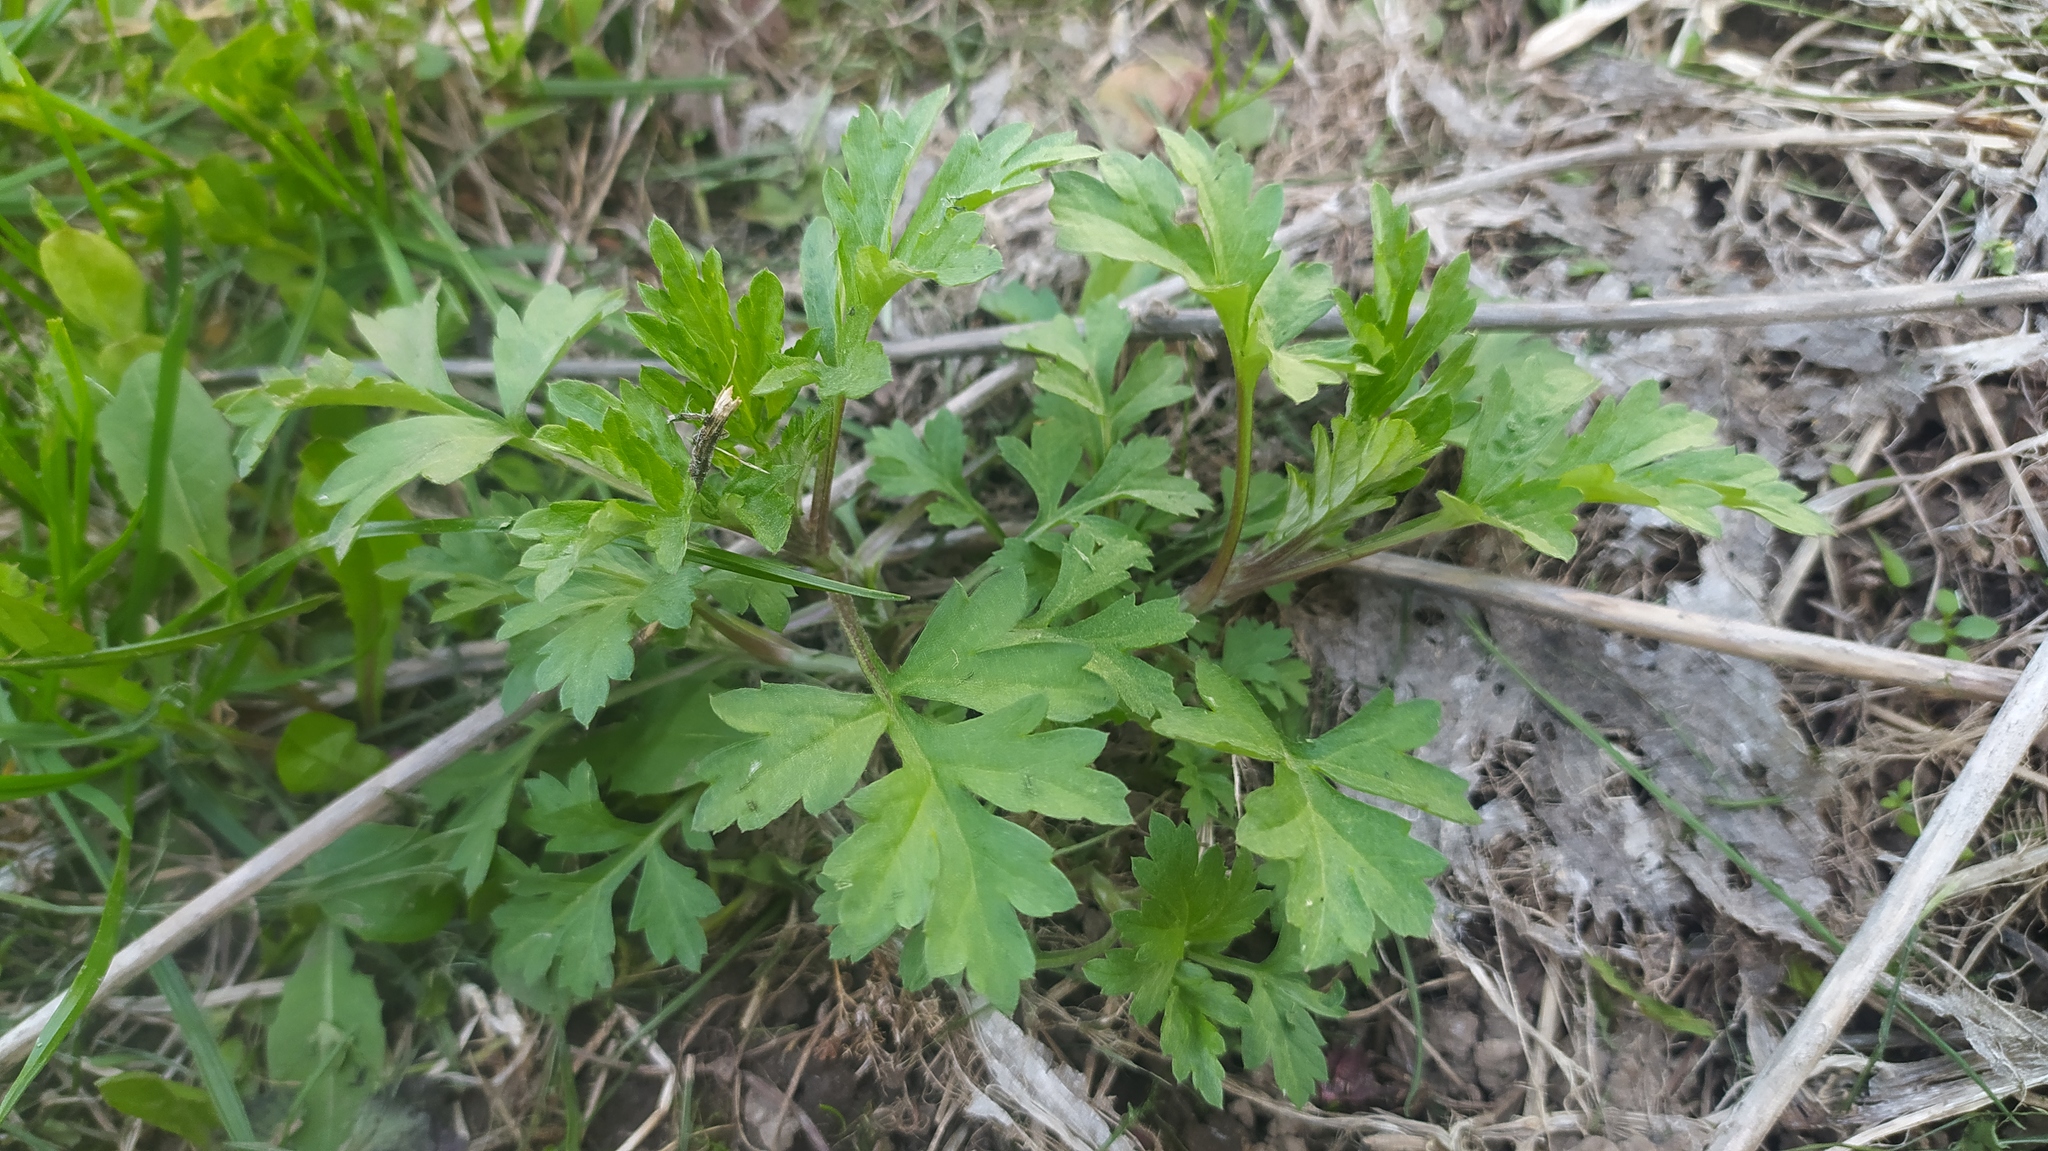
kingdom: Plantae
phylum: Tracheophyta
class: Magnoliopsida
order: Asterales
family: Asteraceae
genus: Artemisia
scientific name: Artemisia vulgaris
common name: Mugwort
